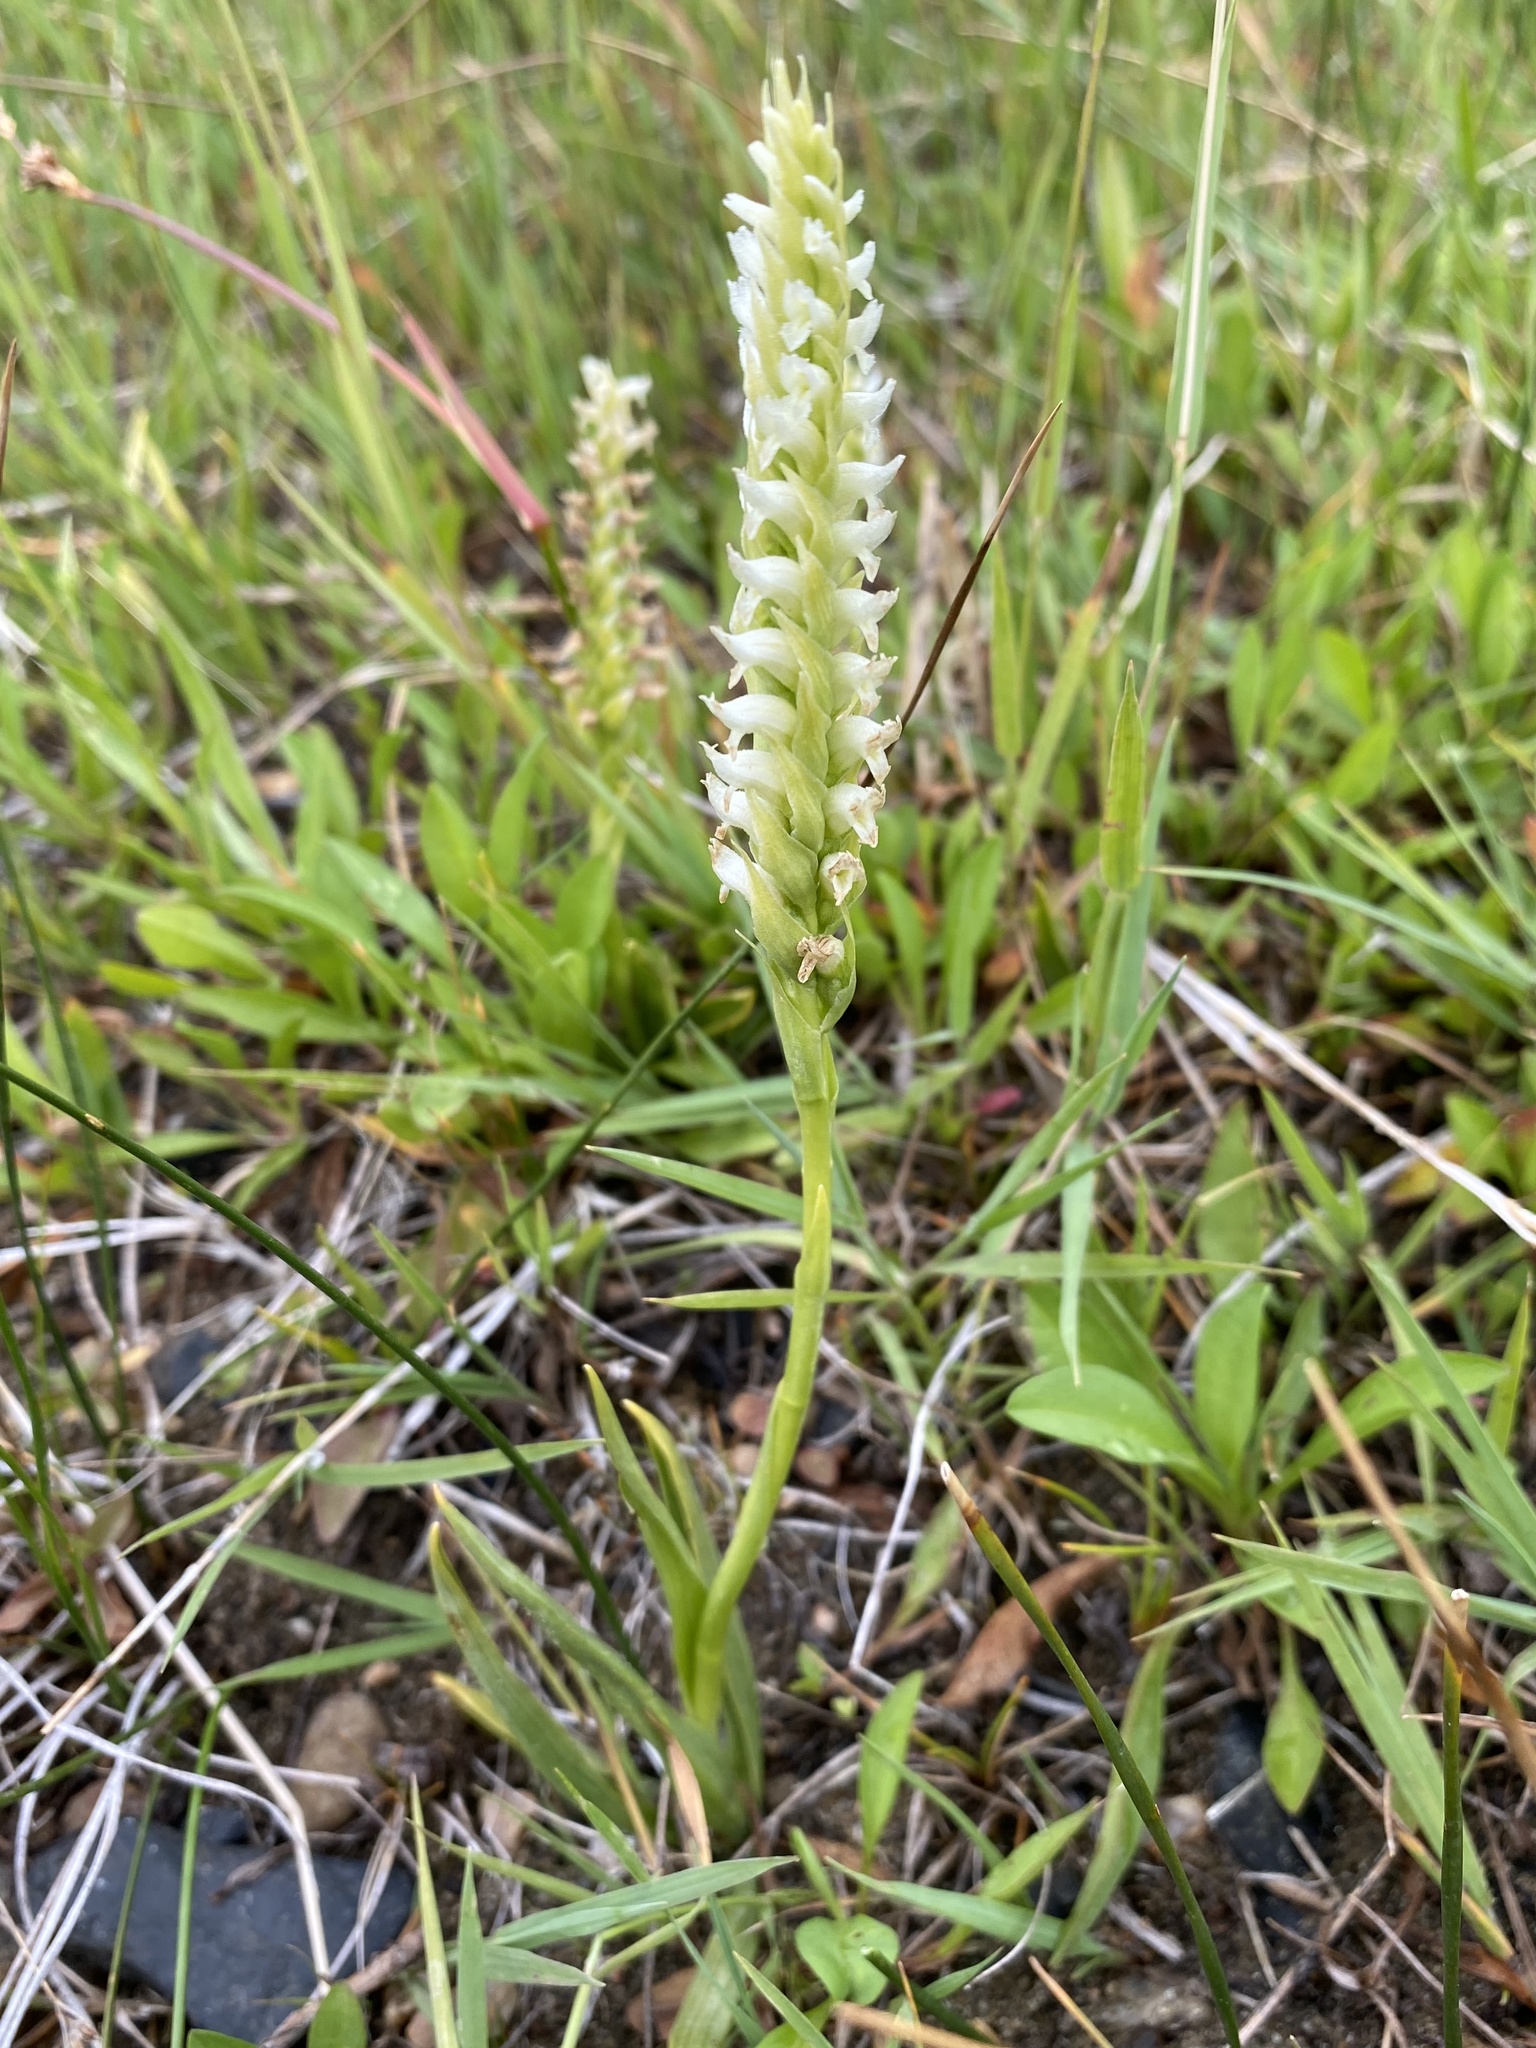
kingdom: Plantae
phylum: Tracheophyta
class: Liliopsida
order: Asparagales
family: Orchidaceae
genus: Spiranthes
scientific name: Spiranthes romanzoffiana
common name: Irish lady's-tresses
